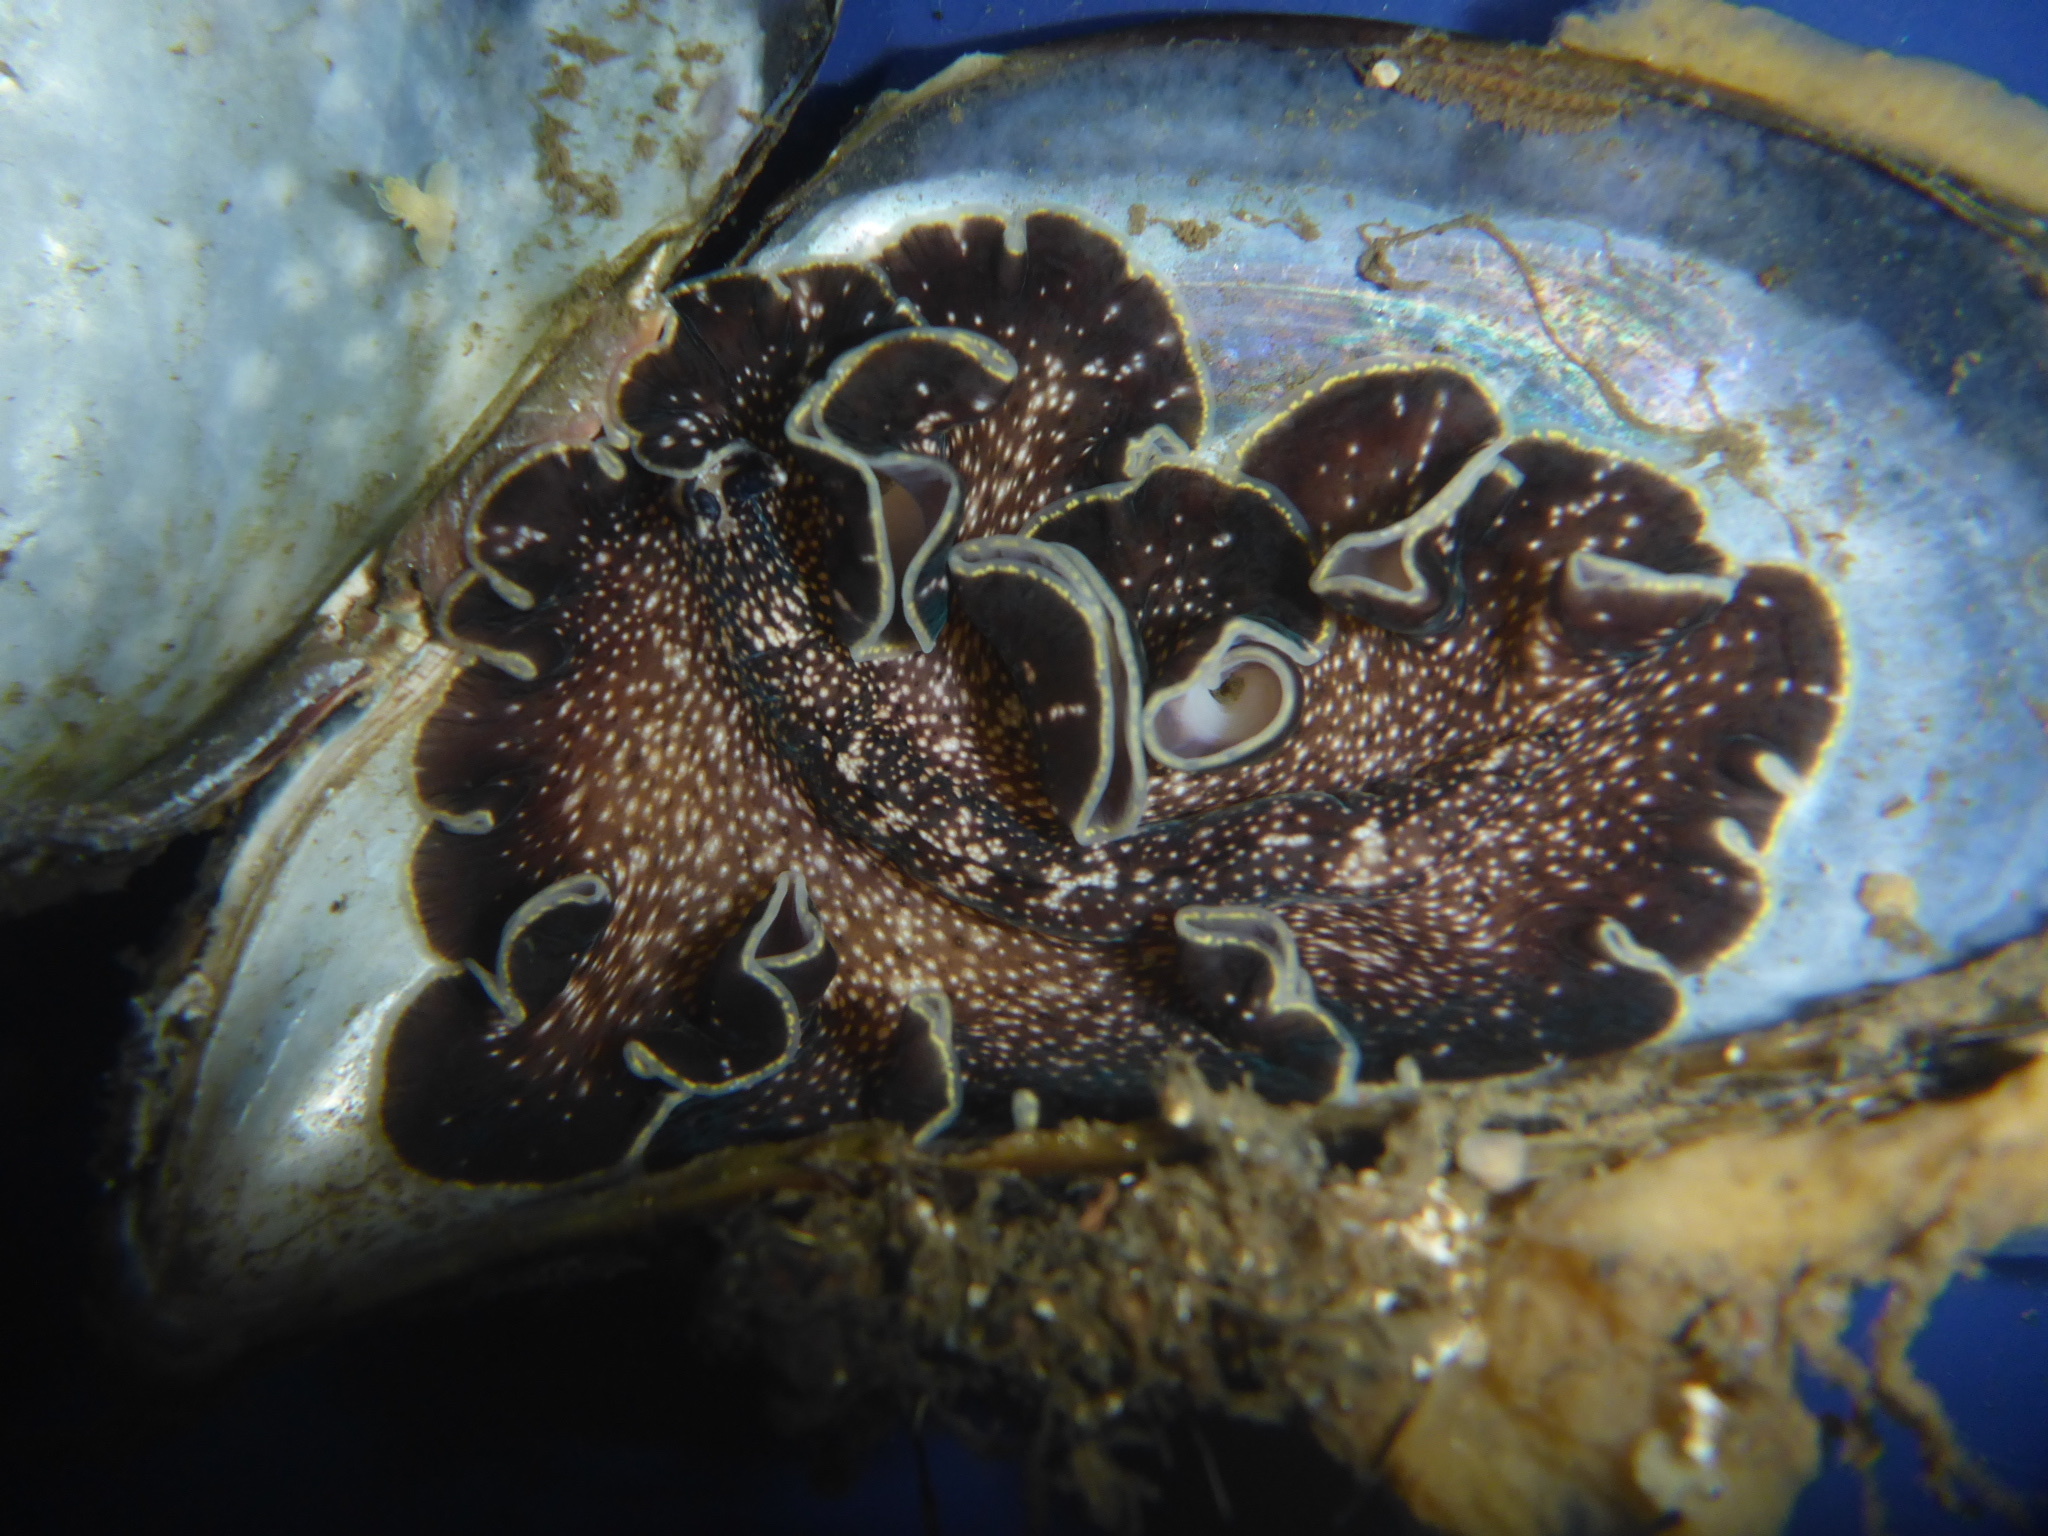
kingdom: Animalia
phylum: Platyhelminthes
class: Turbellaria
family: Pseudocerotidae
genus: Pseudoceros
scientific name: Pseudoceros mexicanus
